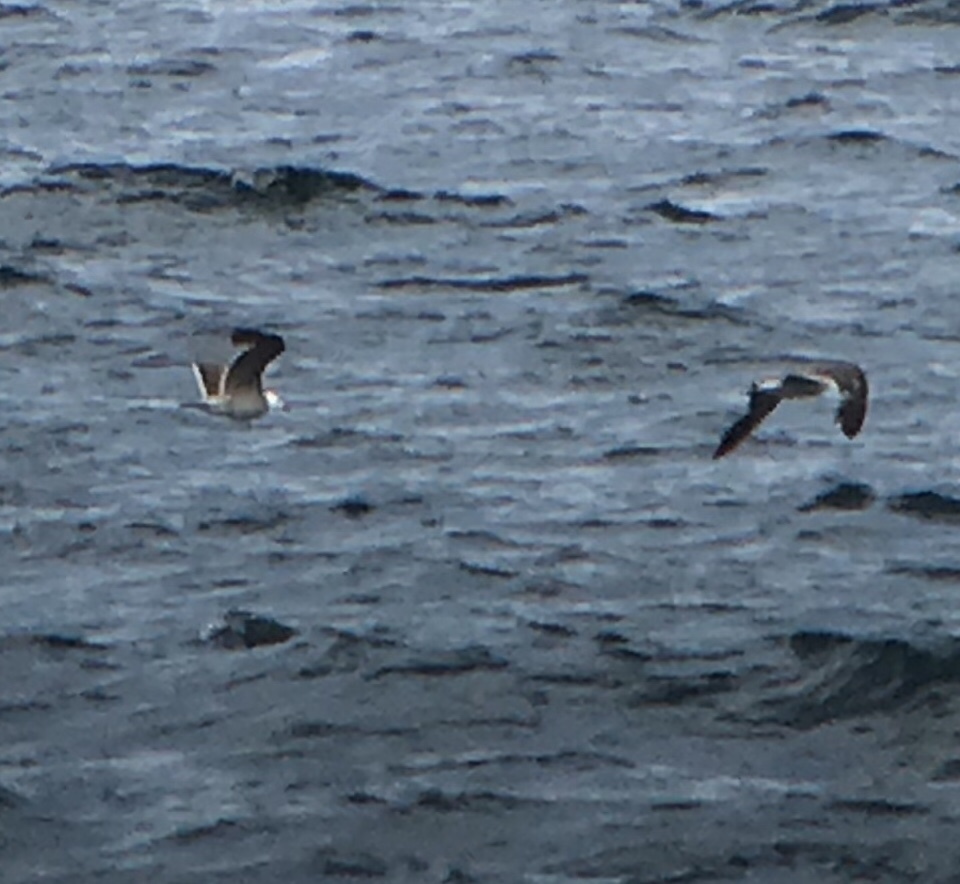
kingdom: Animalia
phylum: Chordata
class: Aves
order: Charadriiformes
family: Laridae
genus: Larus
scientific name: Larus heermanni
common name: Heermann's gull
